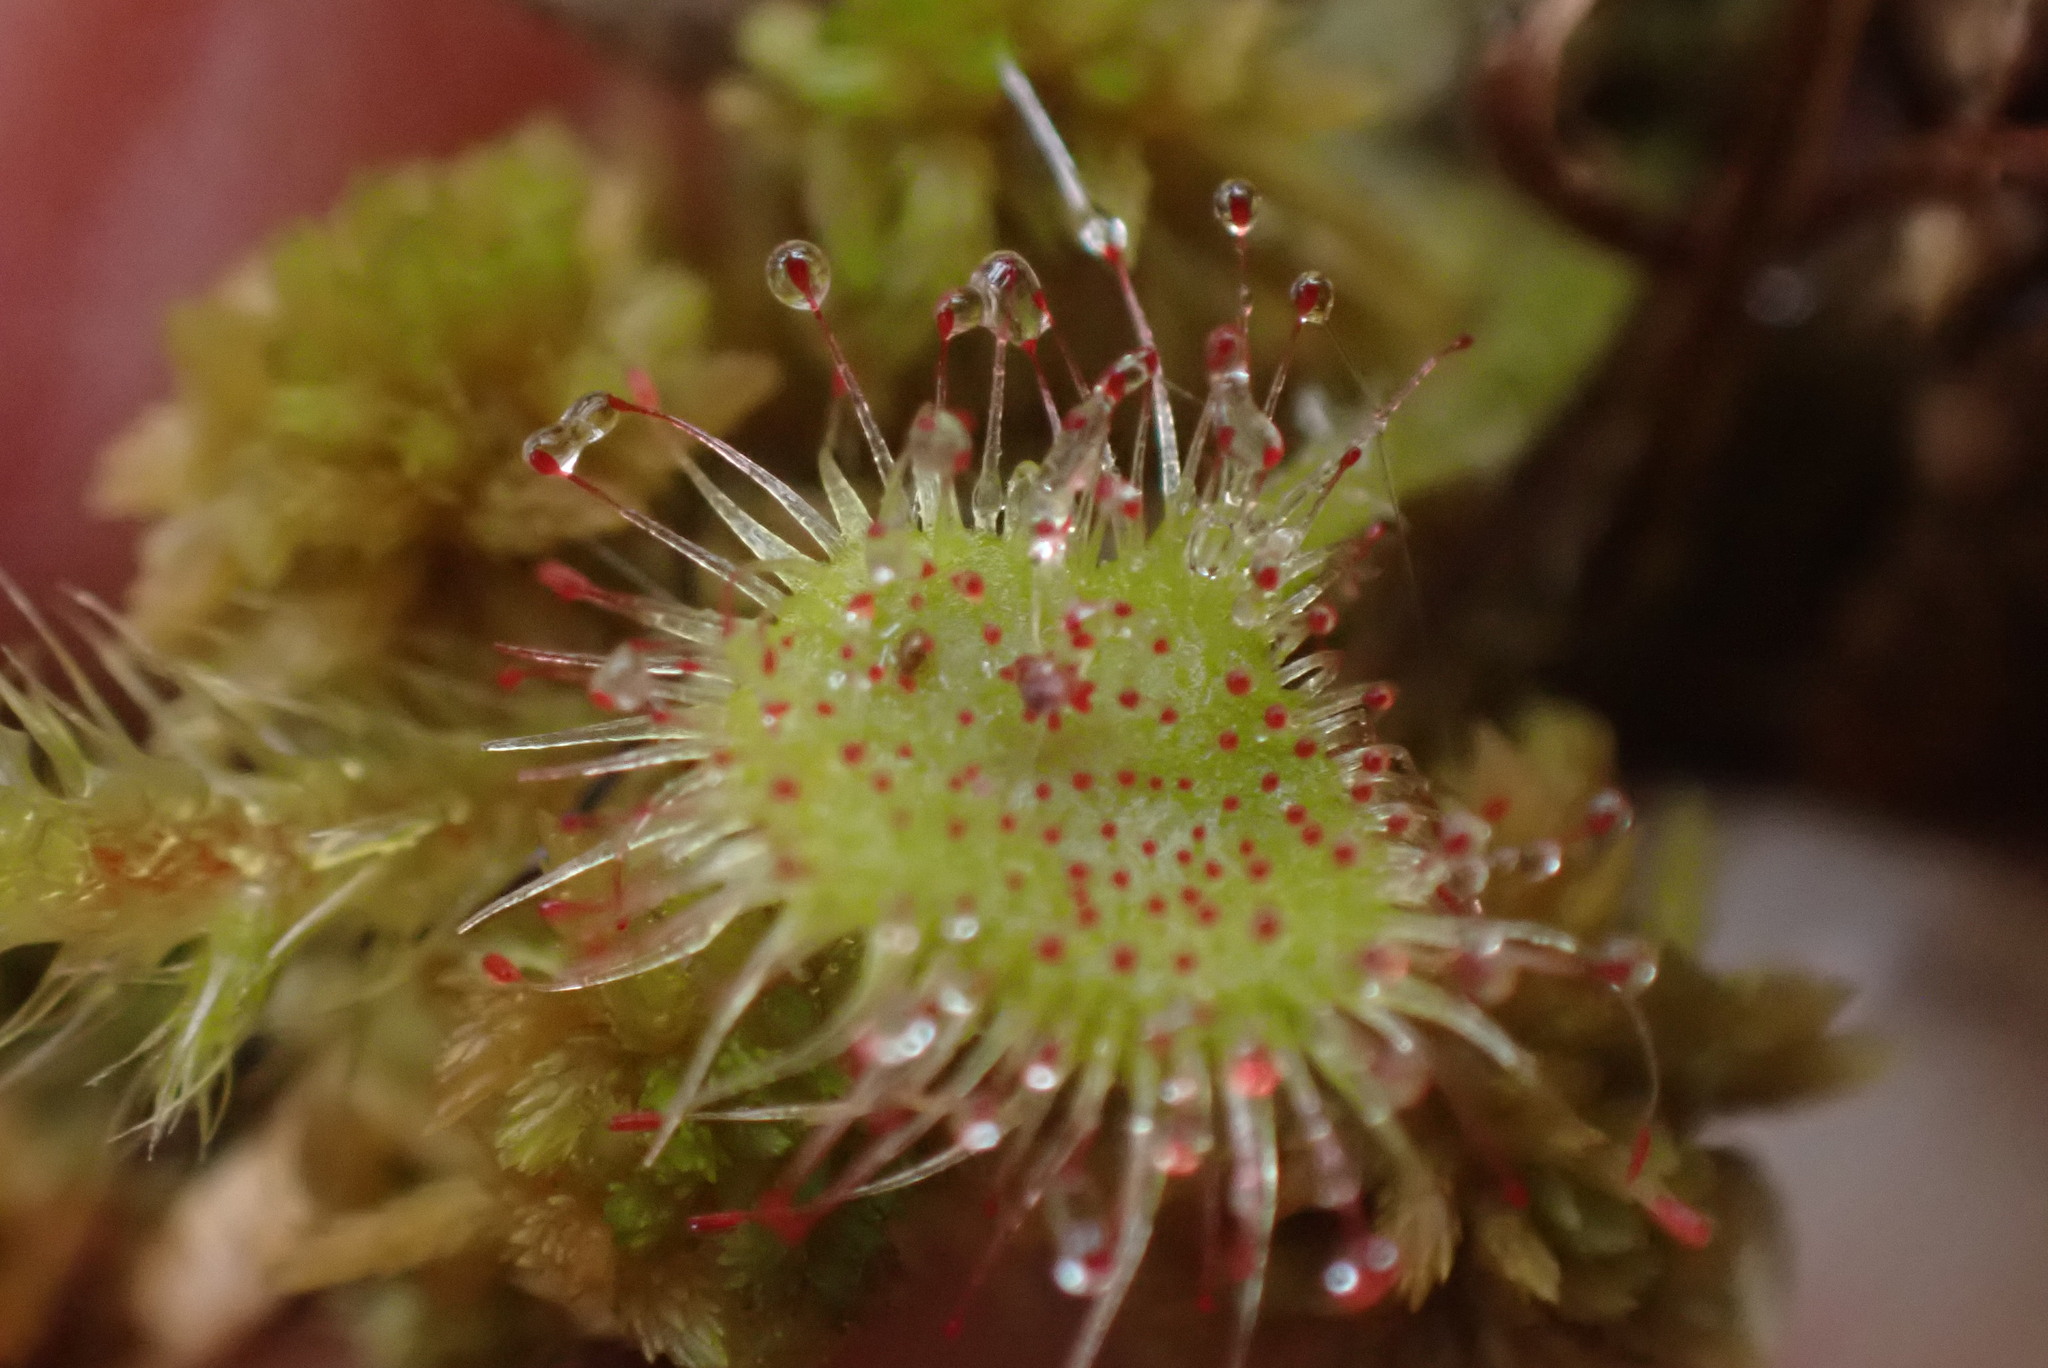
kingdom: Plantae
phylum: Tracheophyta
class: Magnoliopsida
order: Caryophyllales
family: Droseraceae
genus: Drosera
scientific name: Drosera rotundifolia
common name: Round-leaved sundew
